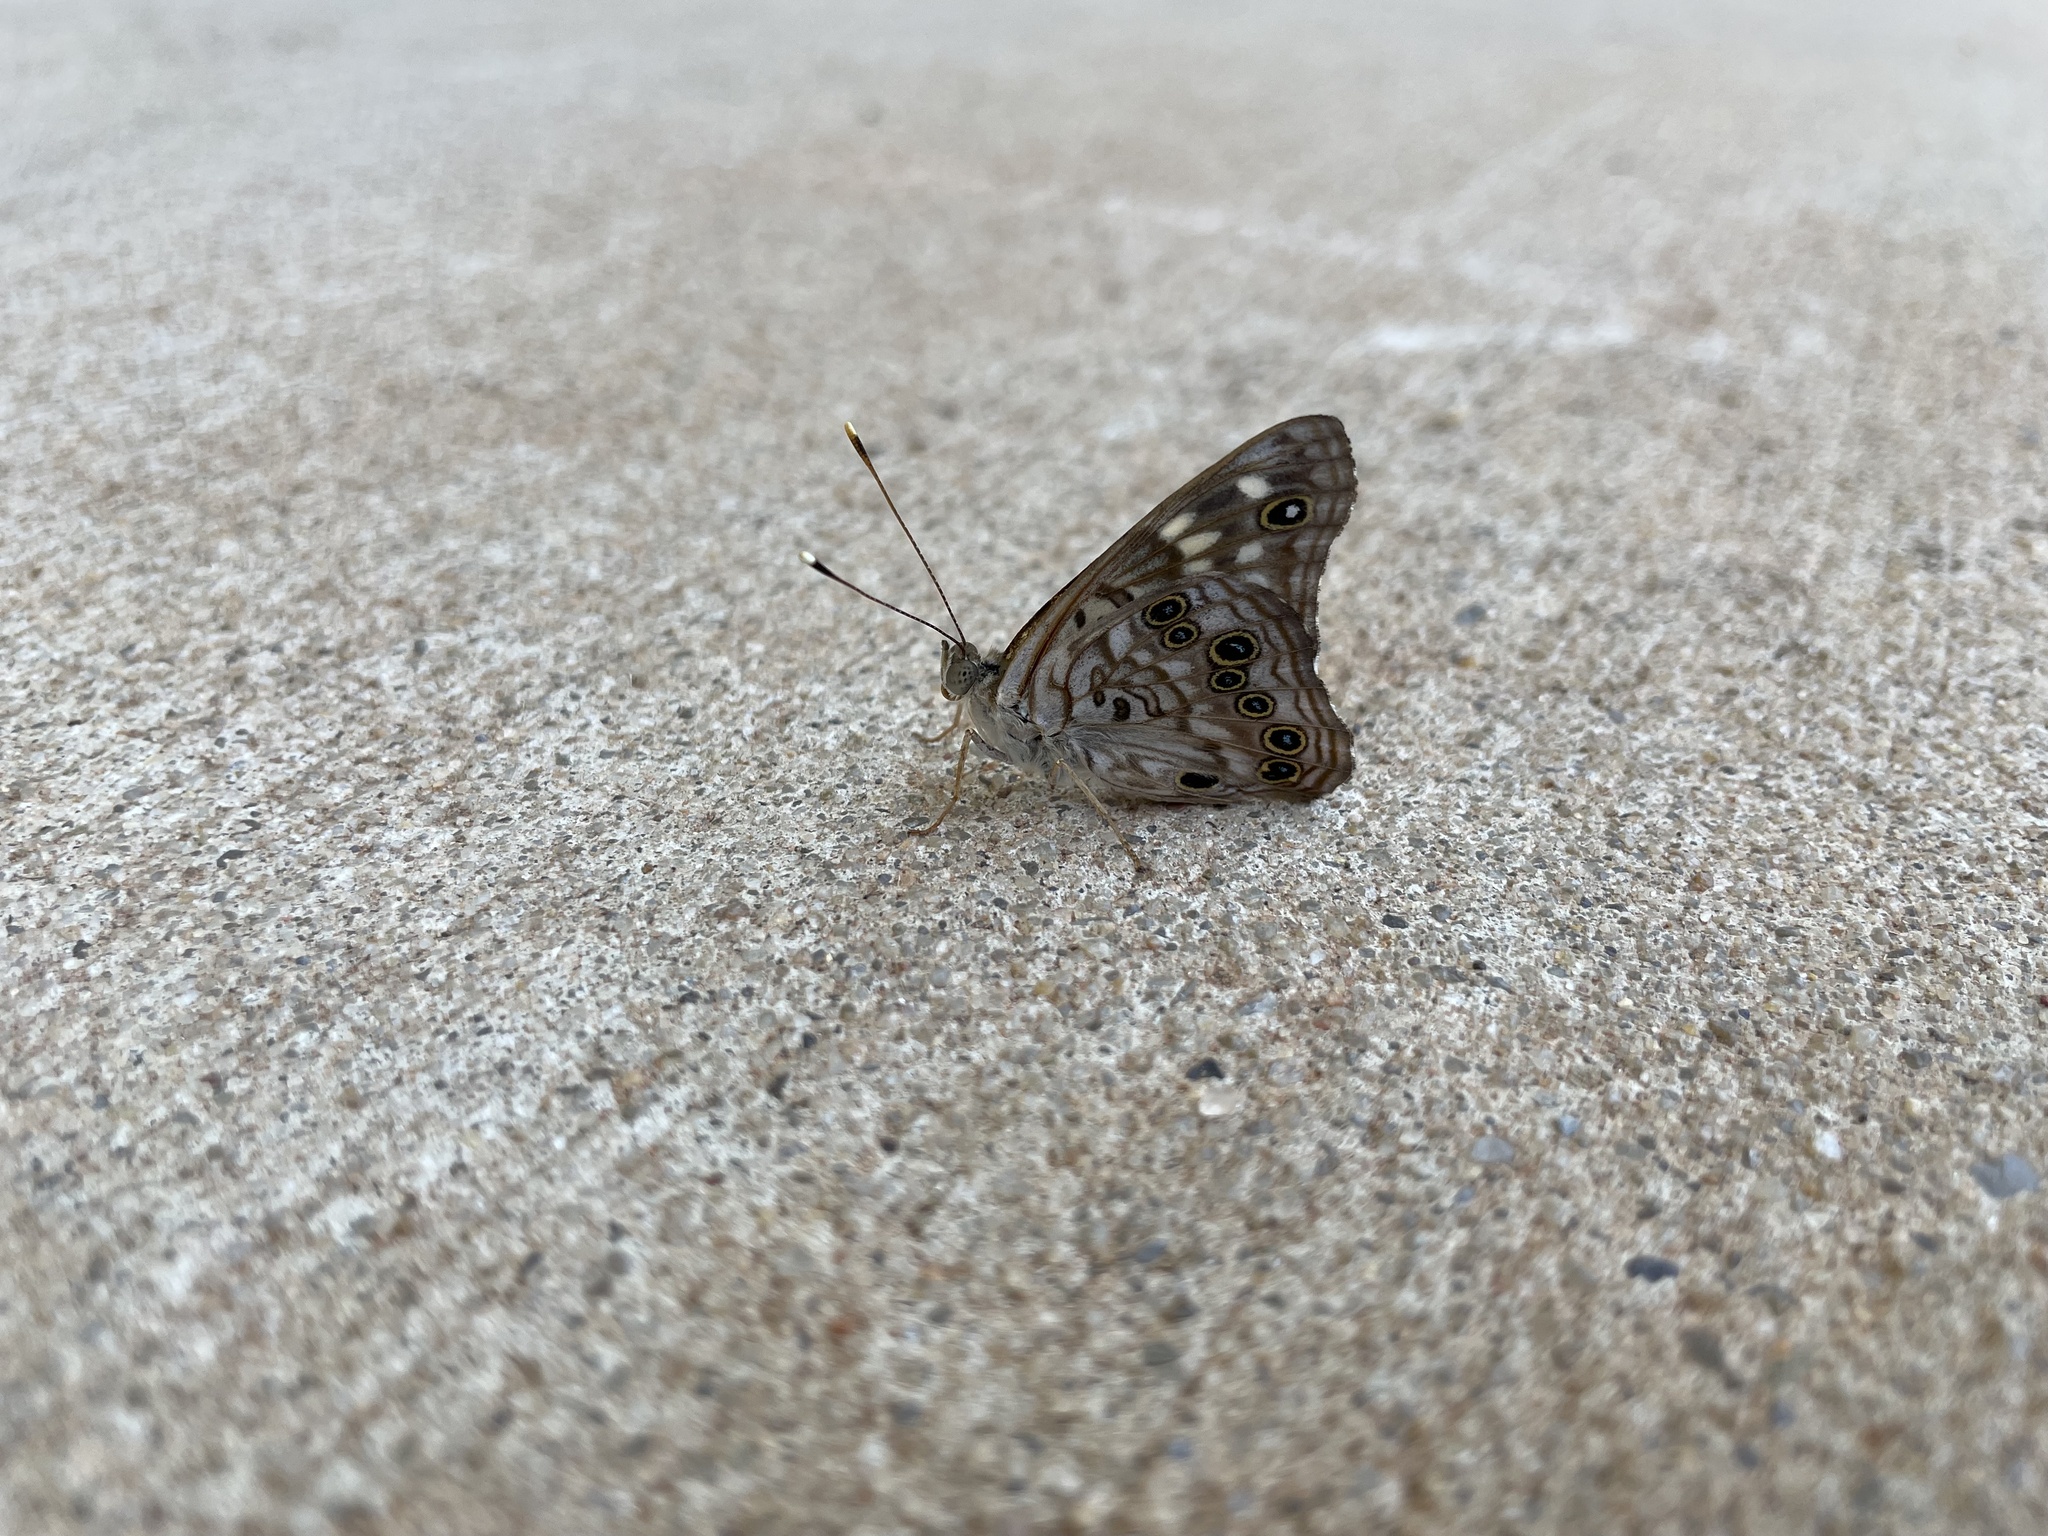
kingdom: Animalia
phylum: Arthropoda
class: Insecta
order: Lepidoptera
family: Nymphalidae
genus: Asterocampa
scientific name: Asterocampa celtis
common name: Hackberry emperor
